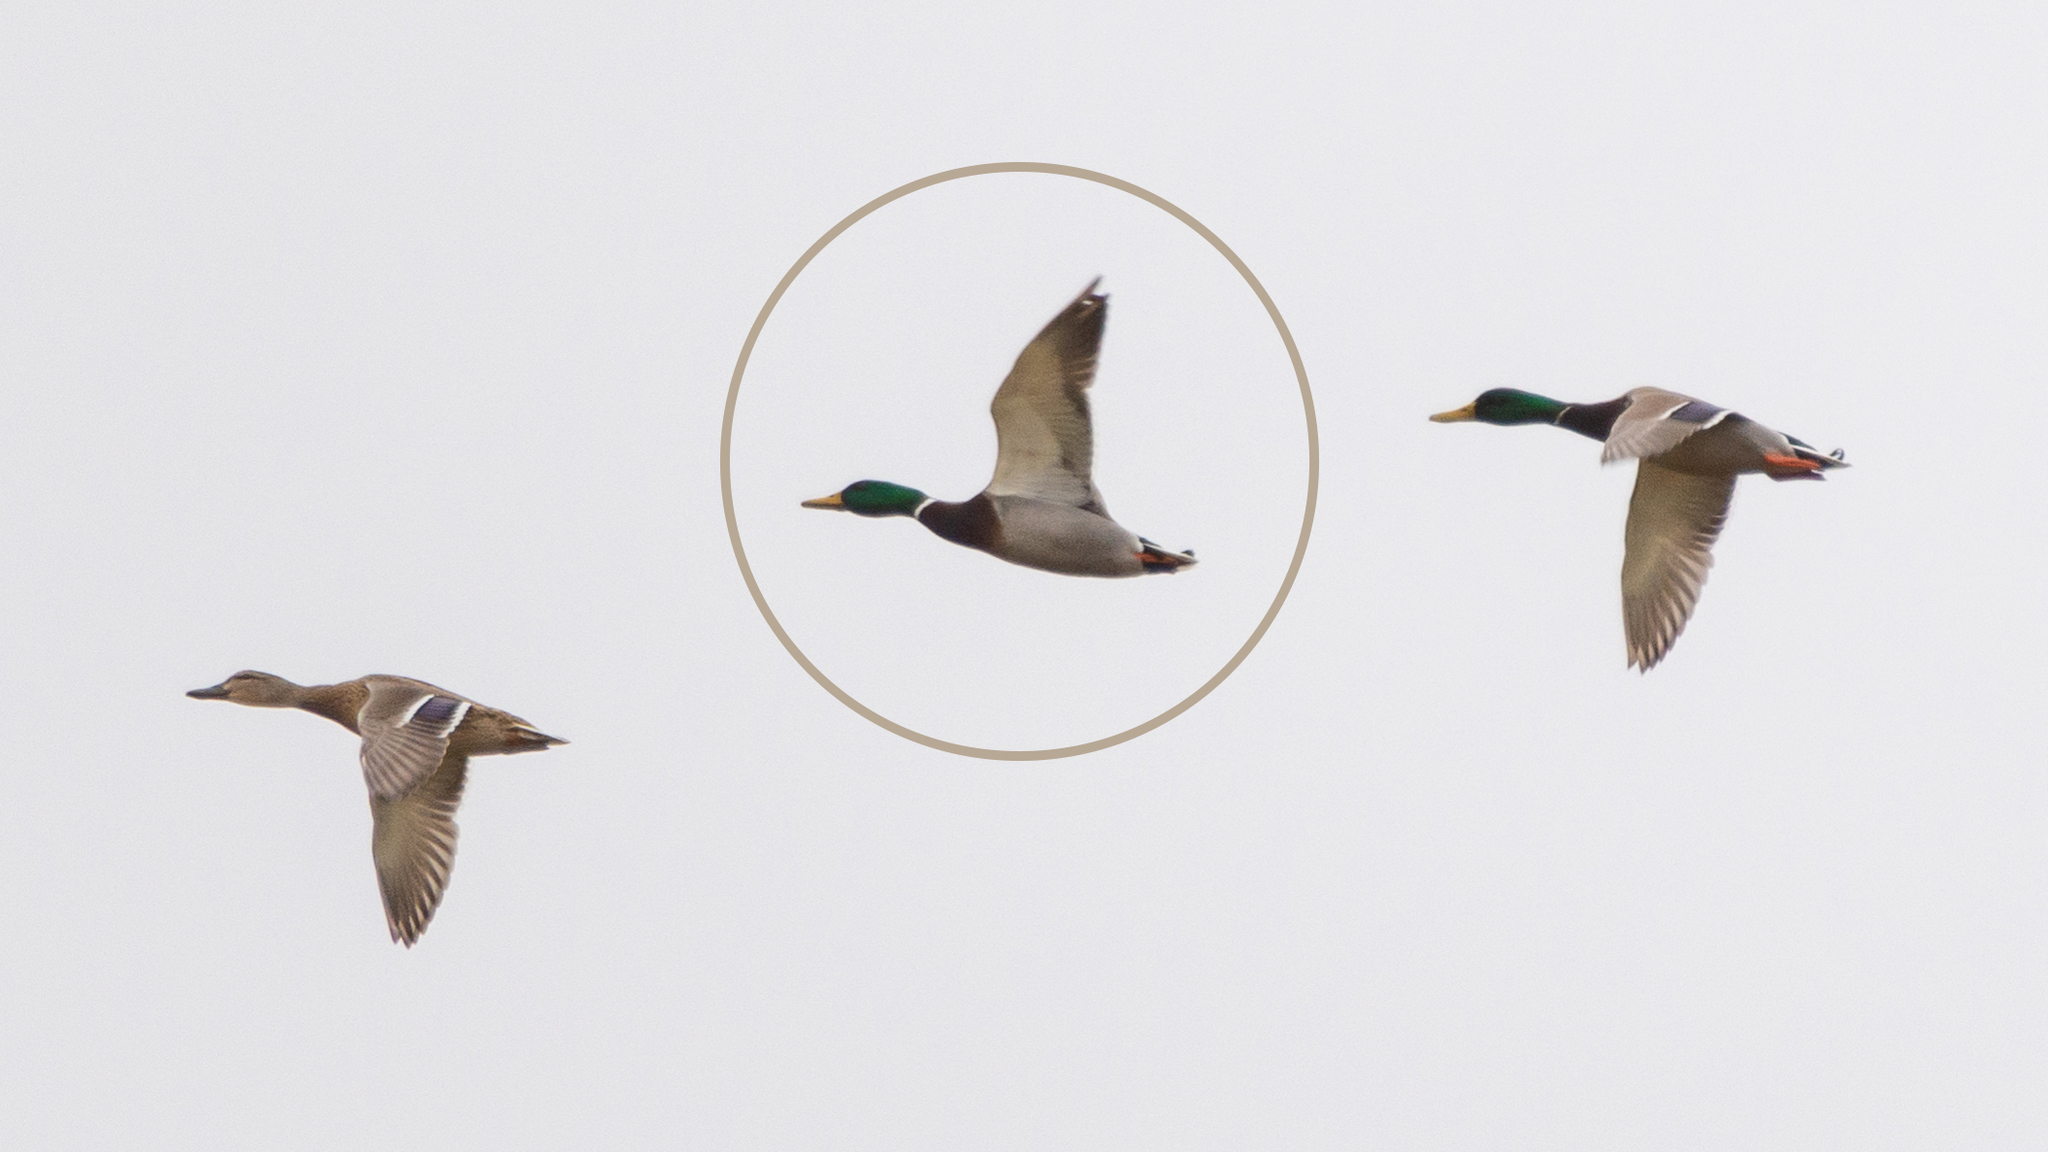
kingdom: Animalia
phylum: Chordata
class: Aves
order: Anseriformes
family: Anatidae
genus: Anas
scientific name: Anas platyrhynchos
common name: Mallard
